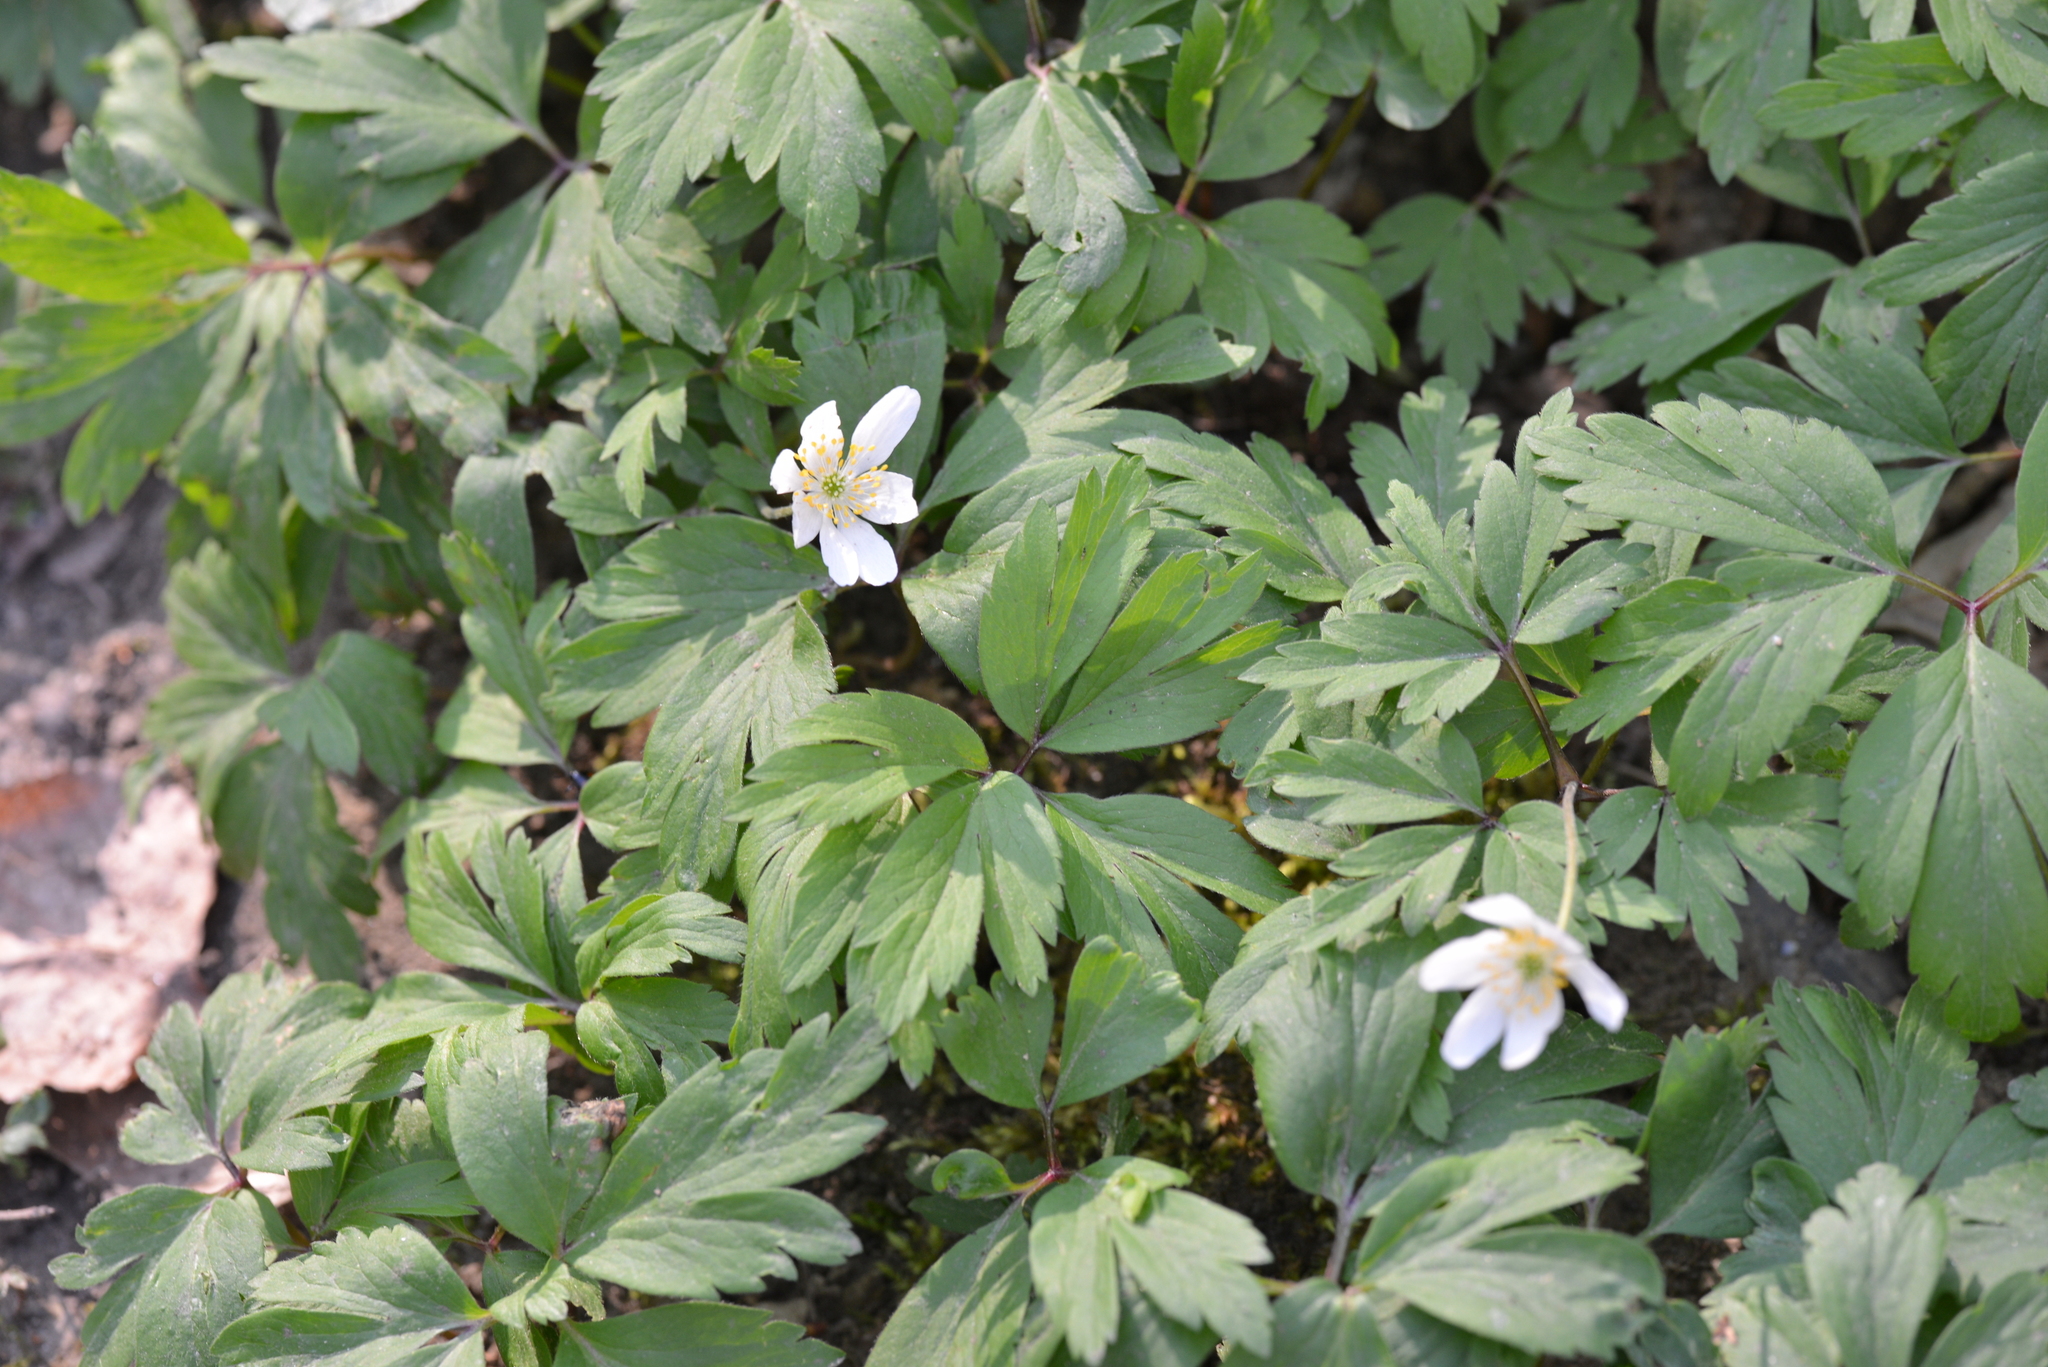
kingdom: Plantae
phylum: Tracheophyta
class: Magnoliopsida
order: Ranunculales
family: Ranunculaceae
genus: Anemone
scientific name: Anemone nemorosa
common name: Wood anemone
